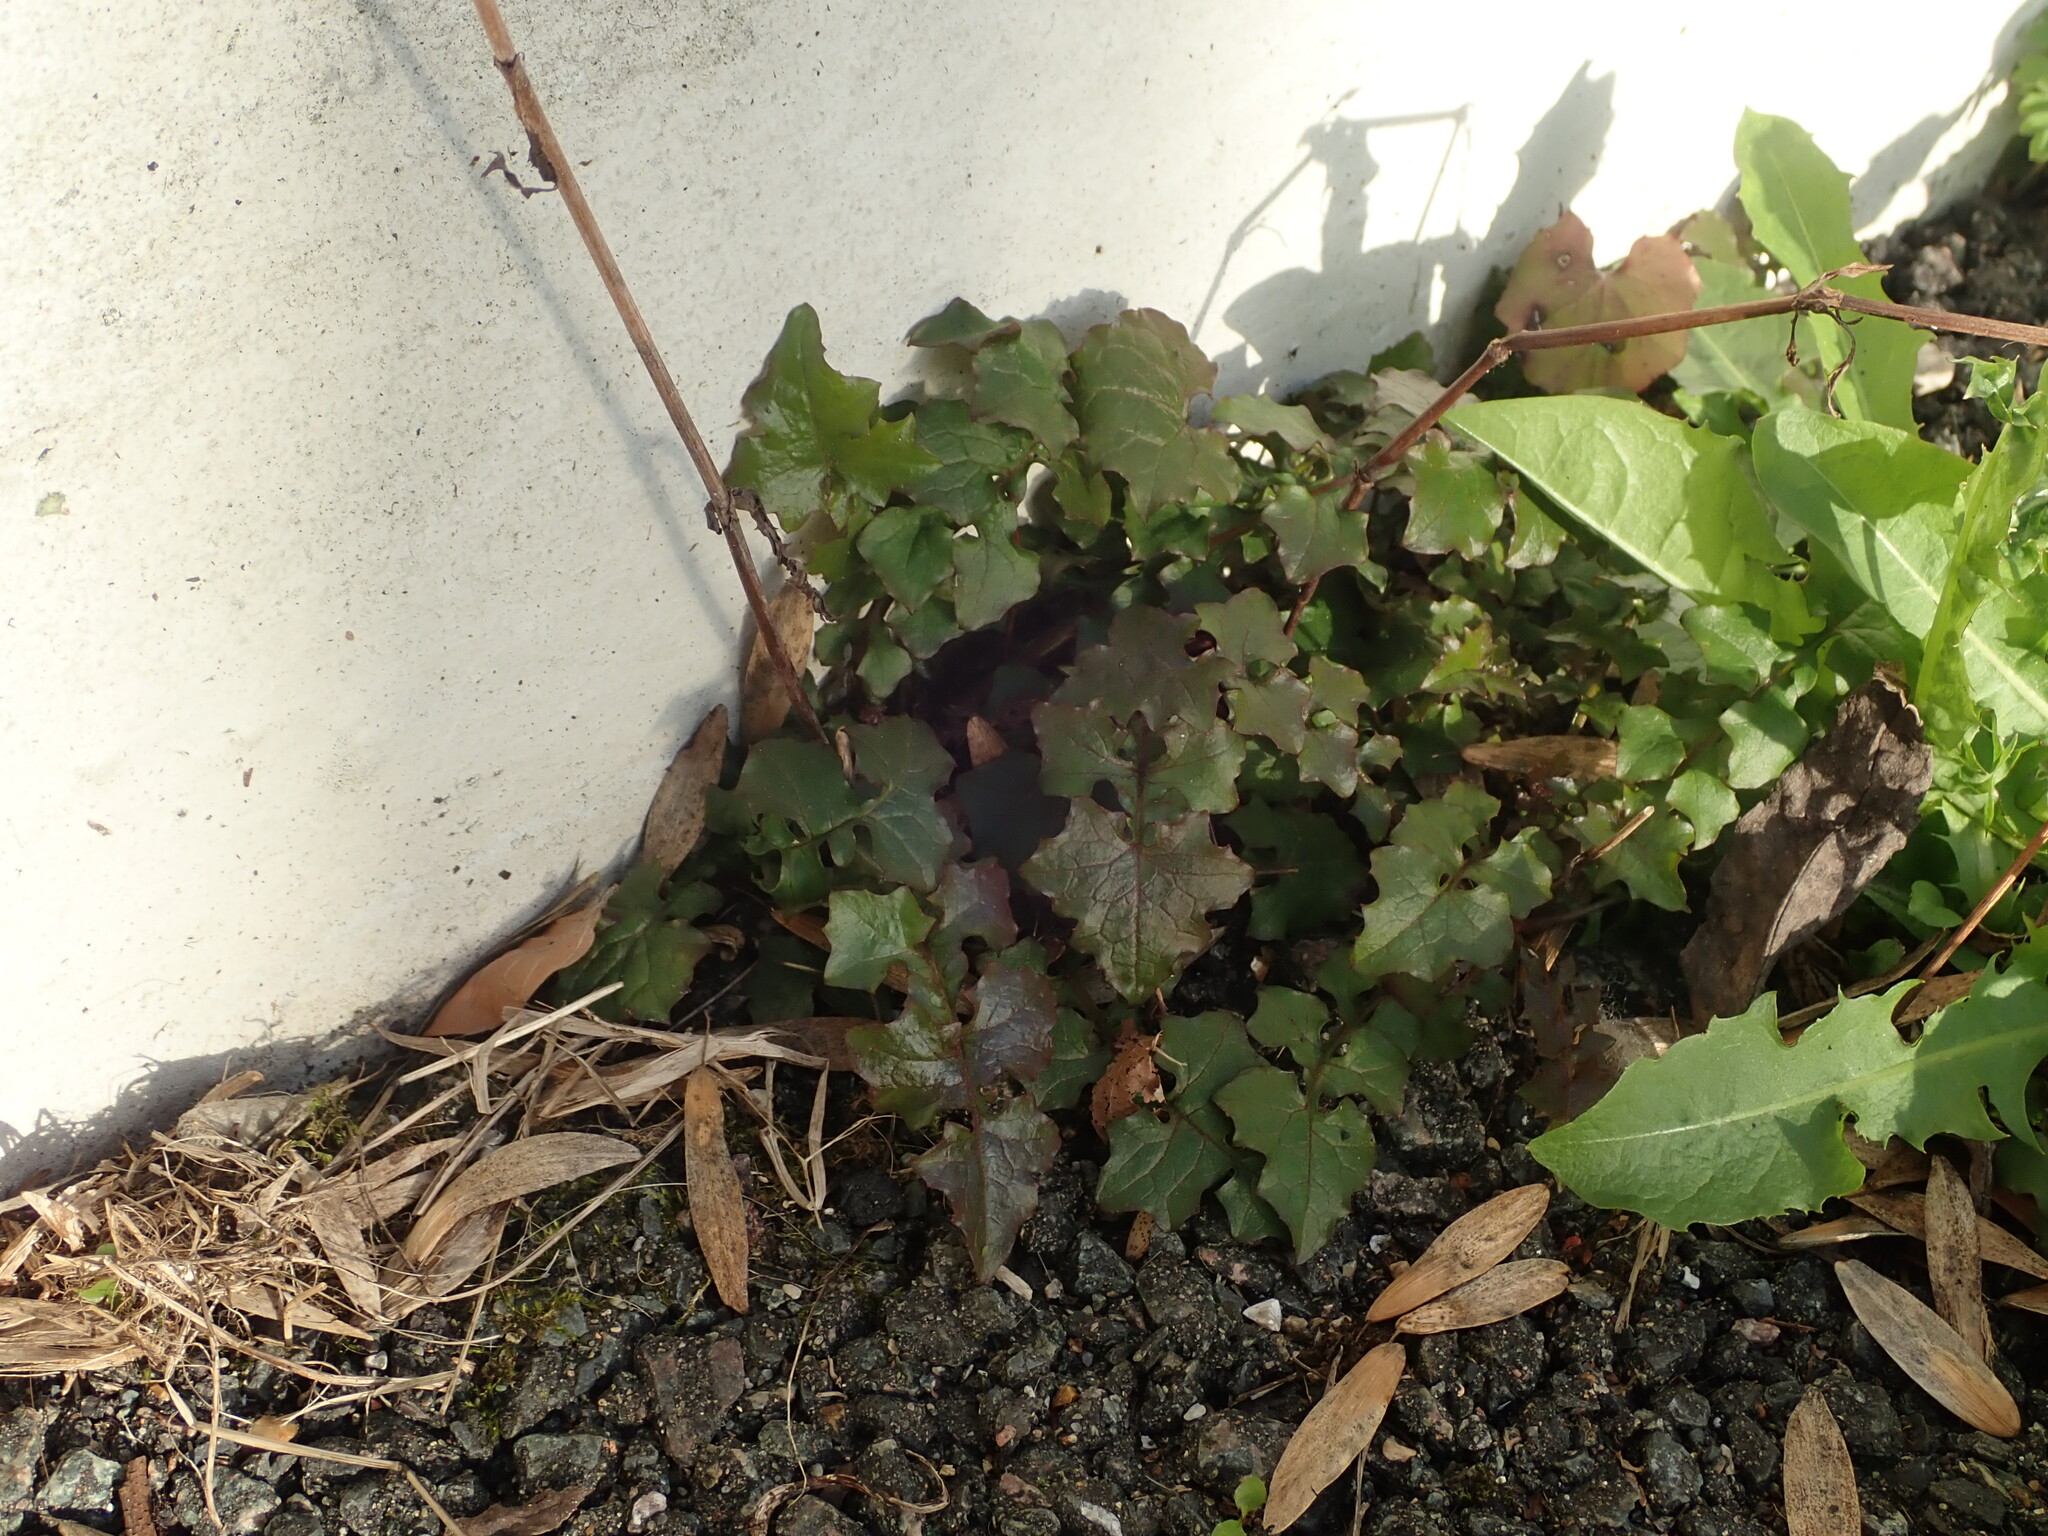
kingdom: Plantae
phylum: Tracheophyta
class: Magnoliopsida
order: Asterales
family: Asteraceae
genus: Mycelis
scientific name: Mycelis muralis
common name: Wall lettuce
